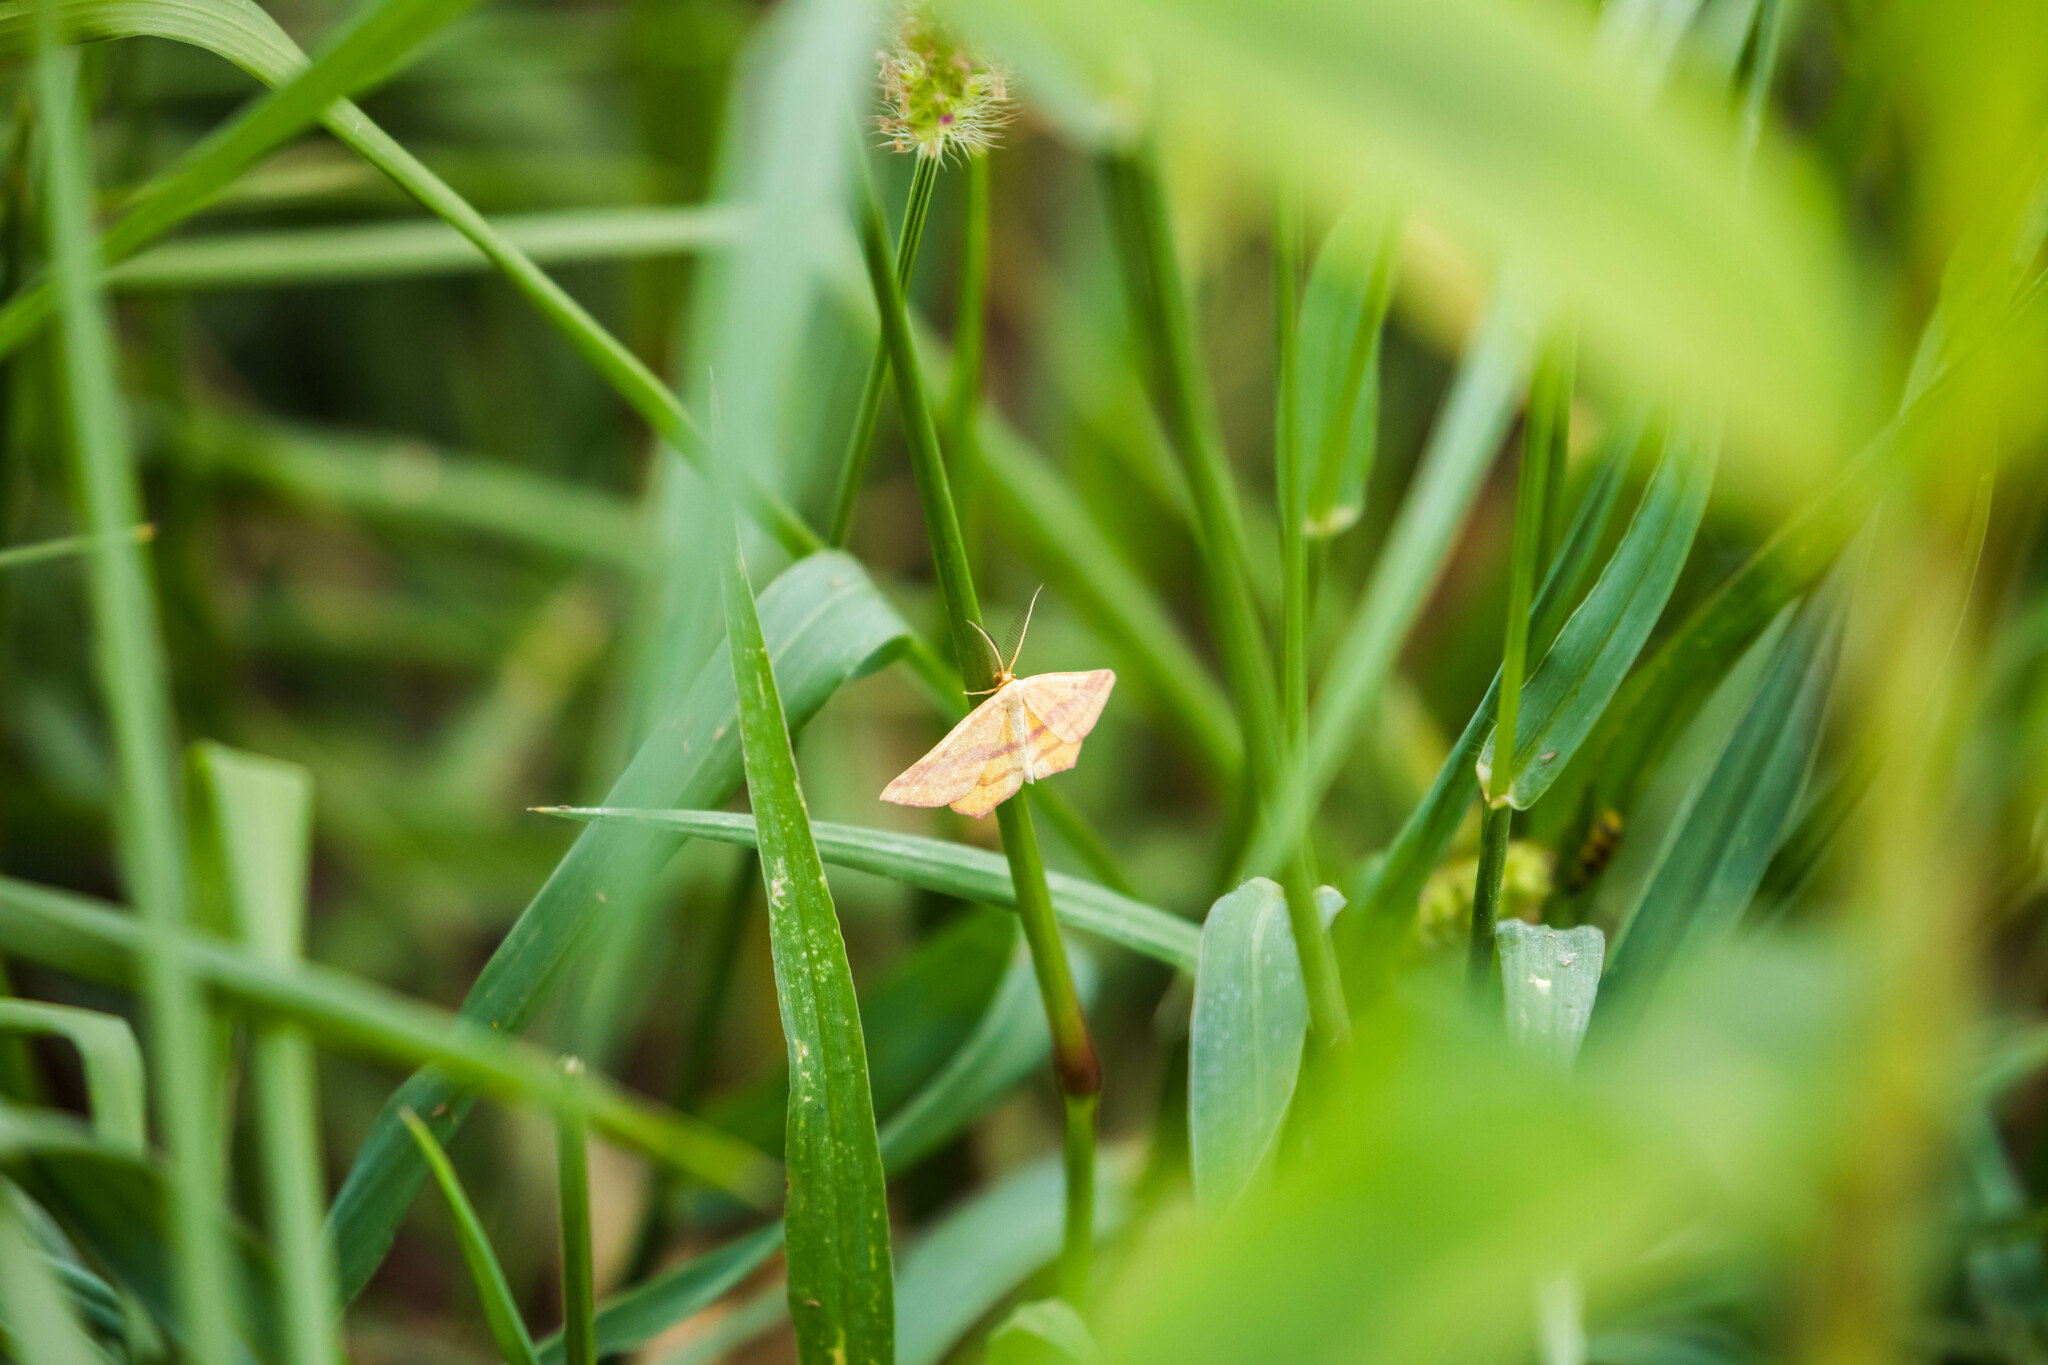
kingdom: Animalia
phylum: Arthropoda
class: Insecta
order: Lepidoptera
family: Geometridae
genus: Haematopis
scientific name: Haematopis grataria
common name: Chickweed geometer
